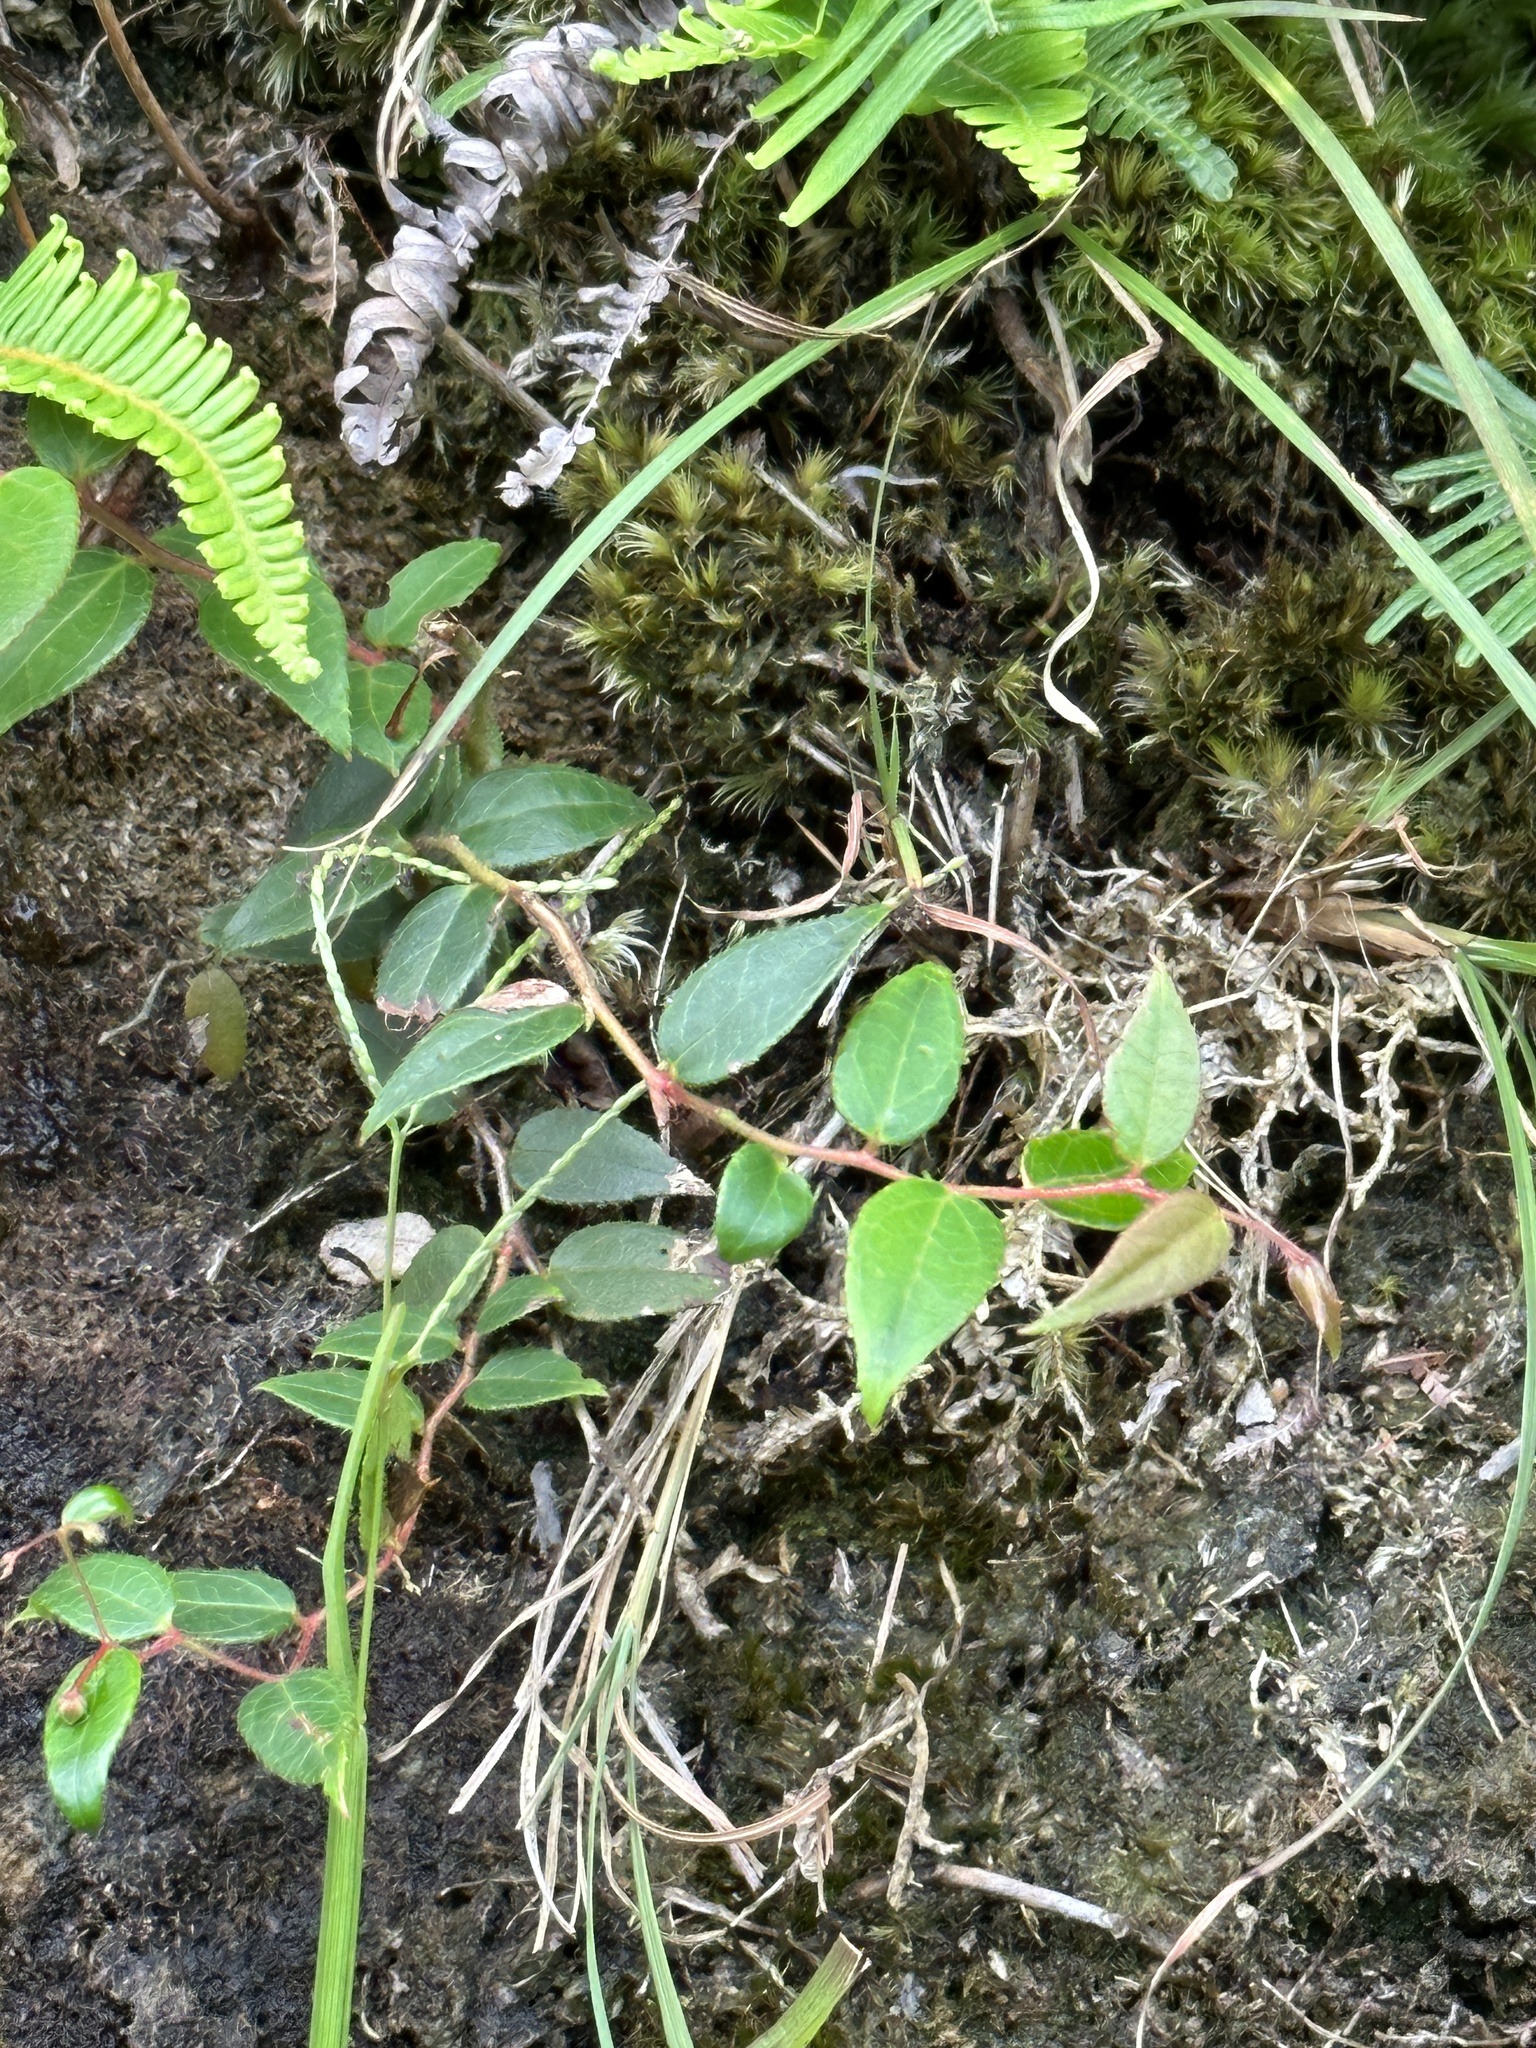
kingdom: Plantae
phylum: Tracheophyta
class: Magnoliopsida
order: Ericales
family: Ericaceae
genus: Gaultheria
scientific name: Gaultheria leucocarpa
